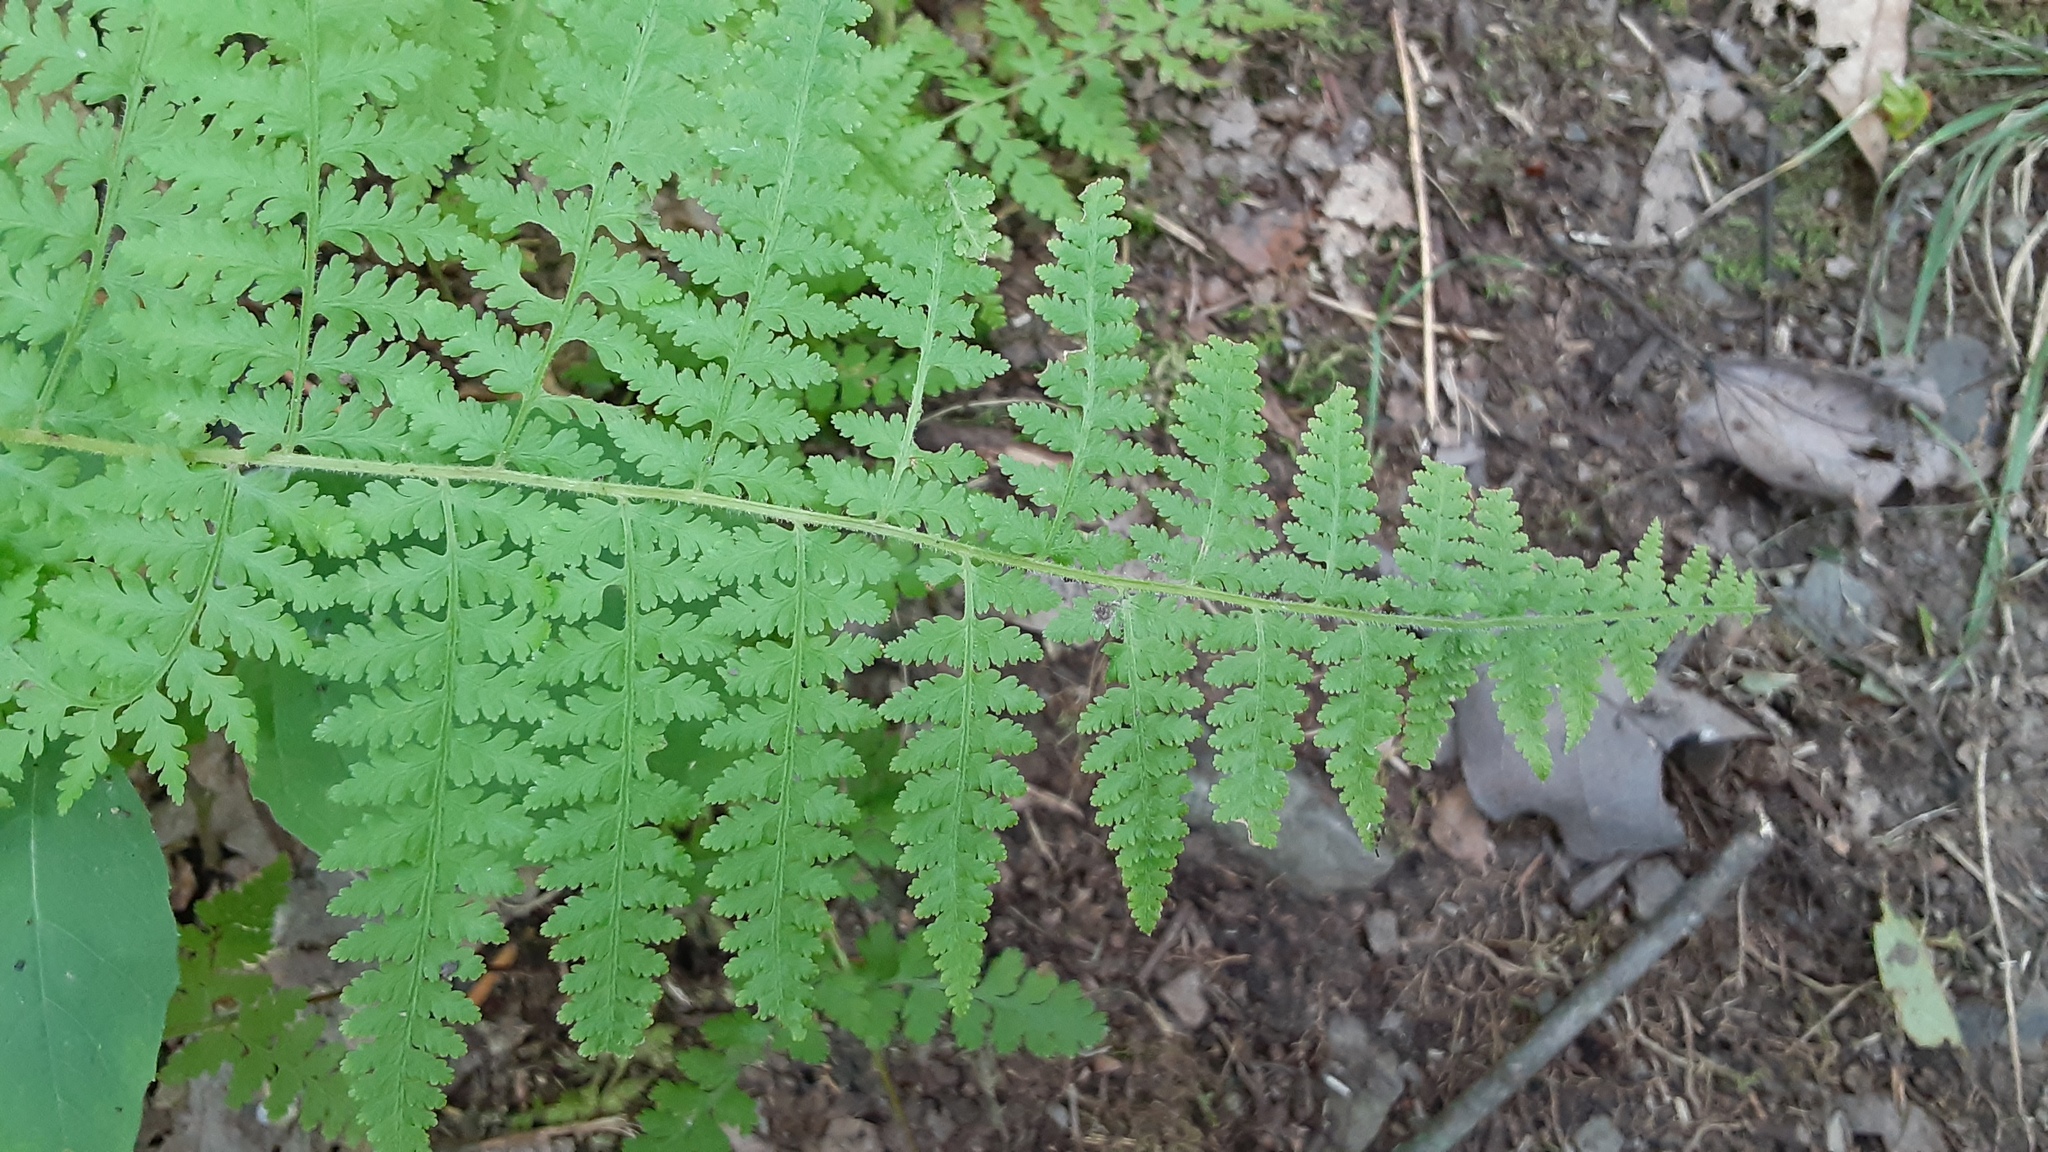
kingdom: Plantae
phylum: Tracheophyta
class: Polypodiopsida
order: Polypodiales
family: Dennstaedtiaceae
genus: Sitobolium
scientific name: Sitobolium punctilobum
